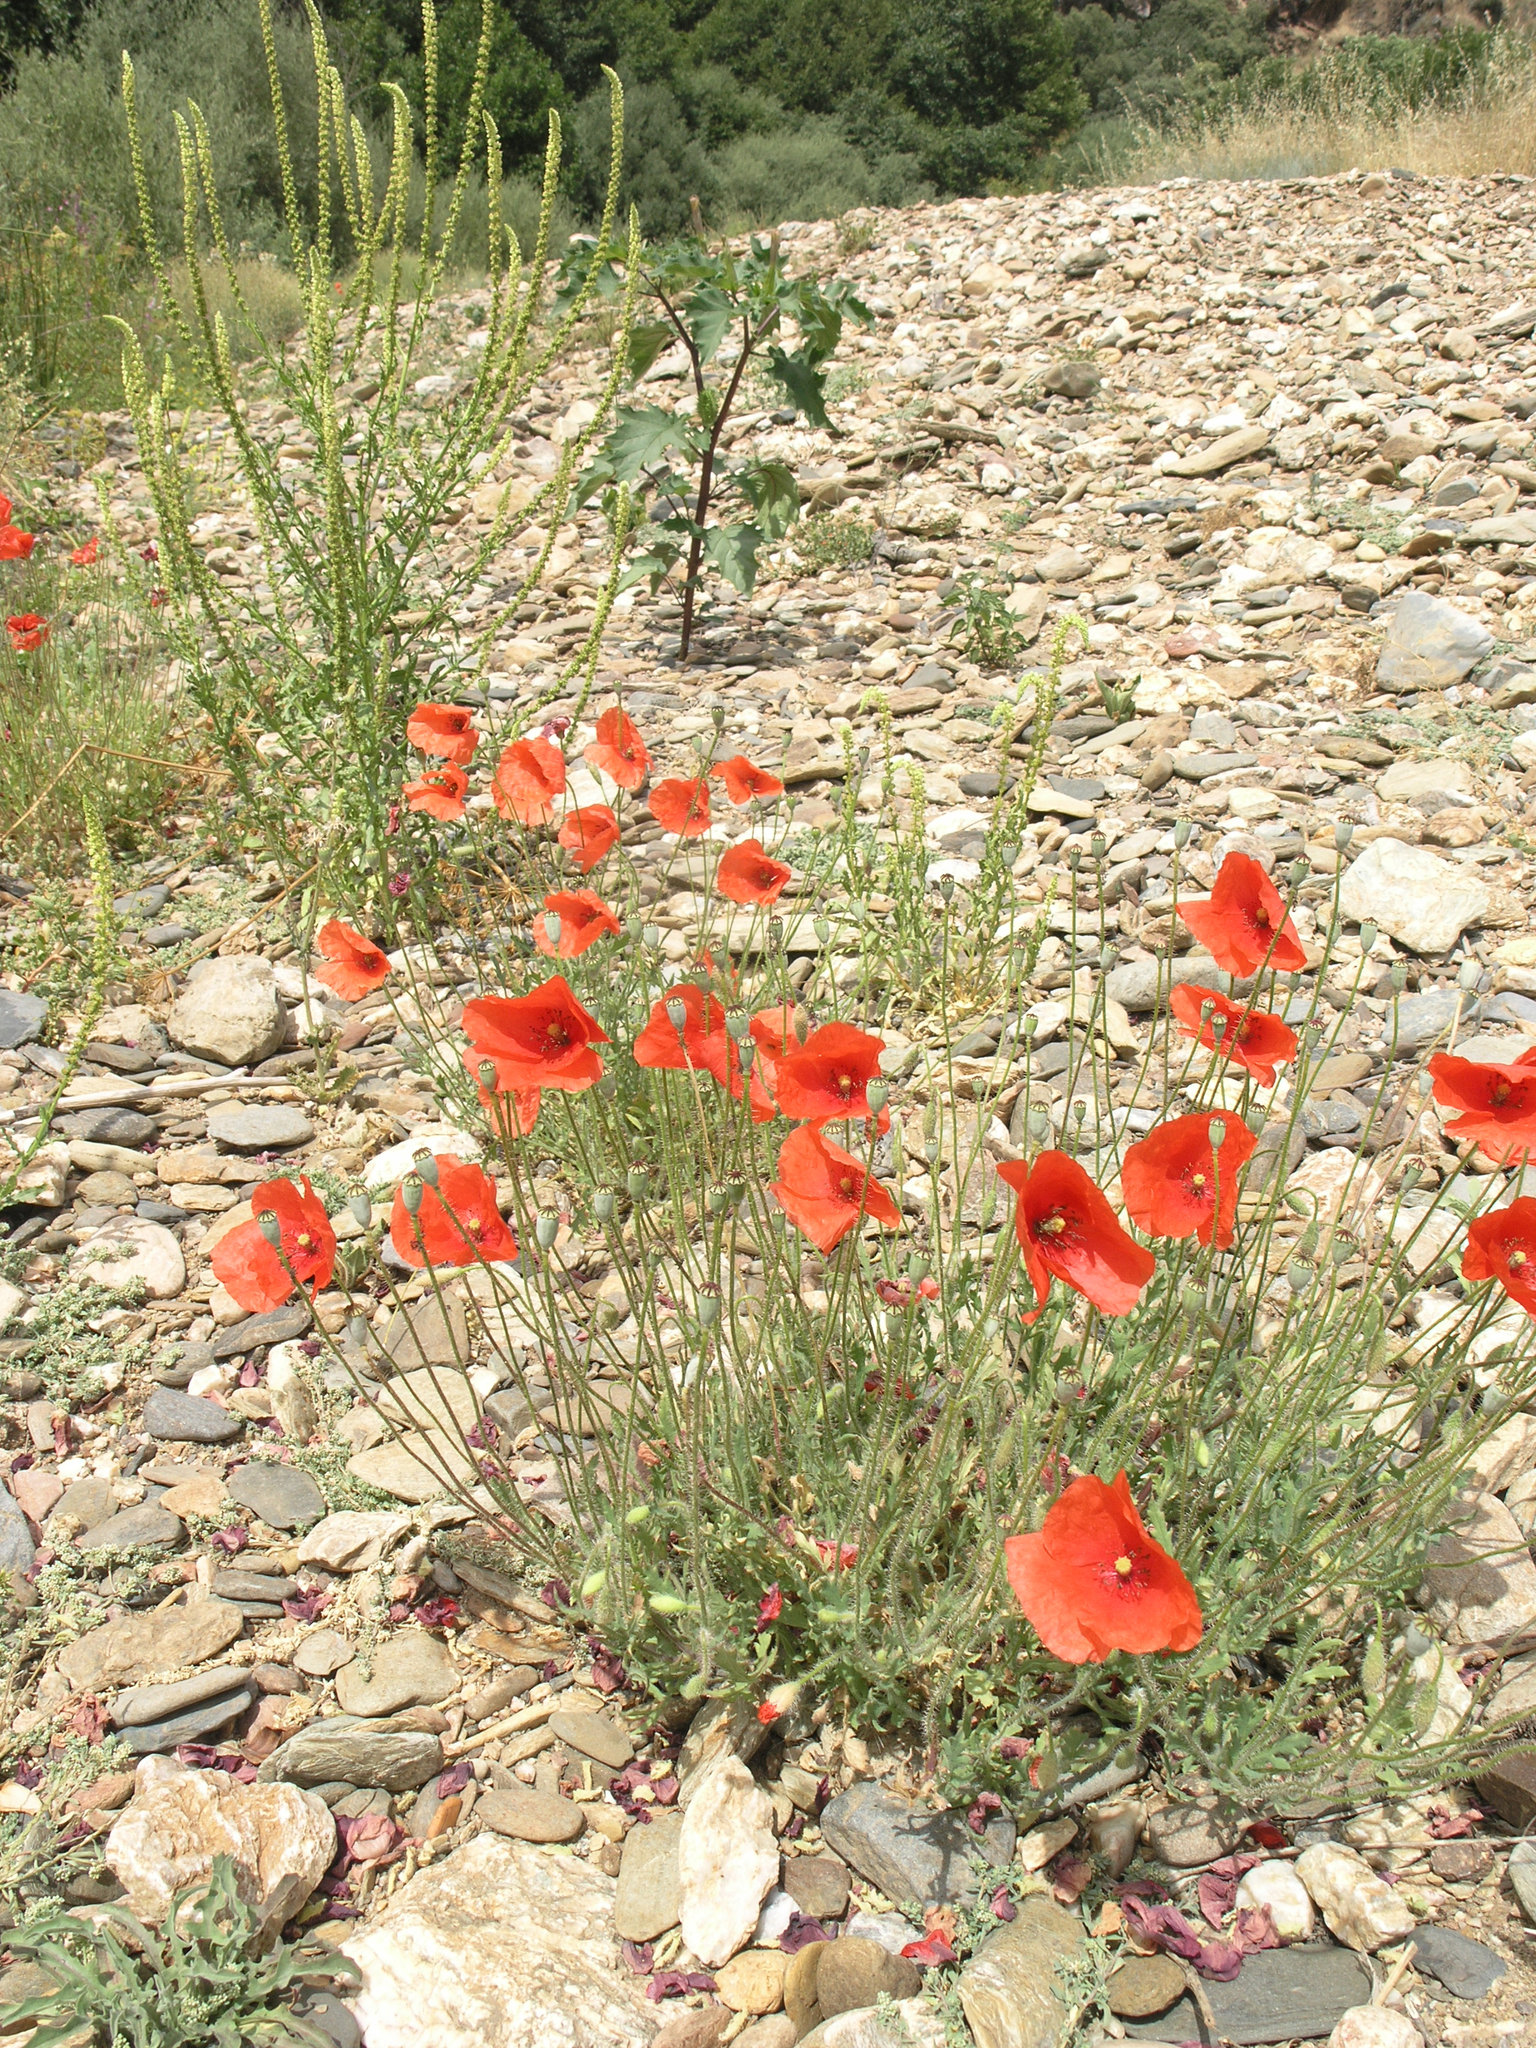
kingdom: Plantae
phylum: Tracheophyta
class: Magnoliopsida
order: Ranunculales
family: Papaveraceae
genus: Papaver
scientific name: Papaver rhoeas
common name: Corn poppy
